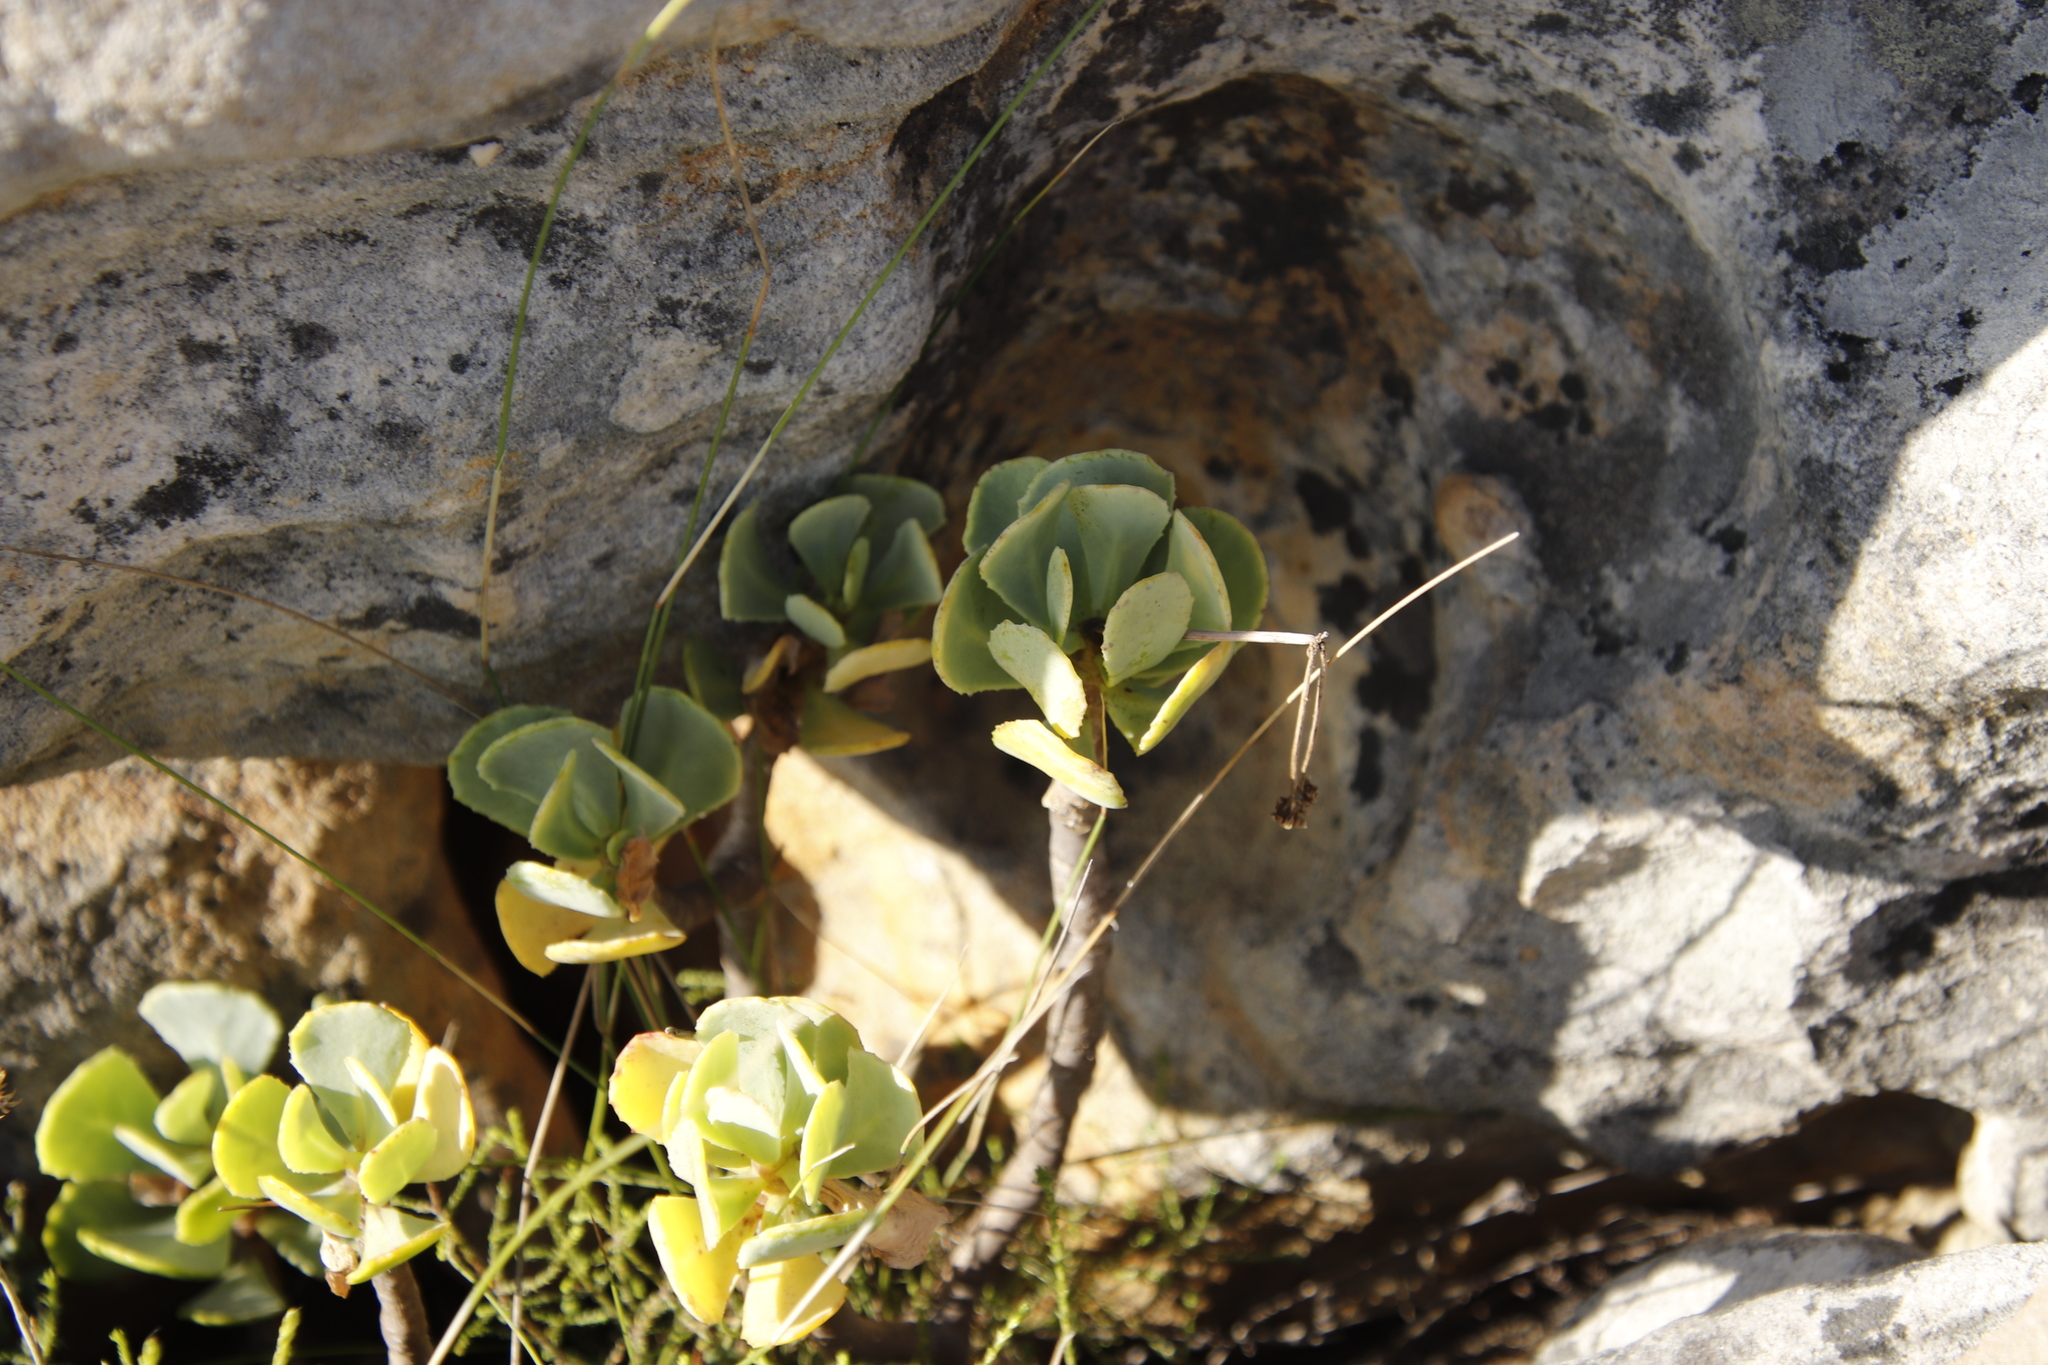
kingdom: Plantae
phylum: Tracheophyta
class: Magnoliopsida
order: Asterales
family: Asteraceae
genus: Othonna
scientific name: Othonna dentata
